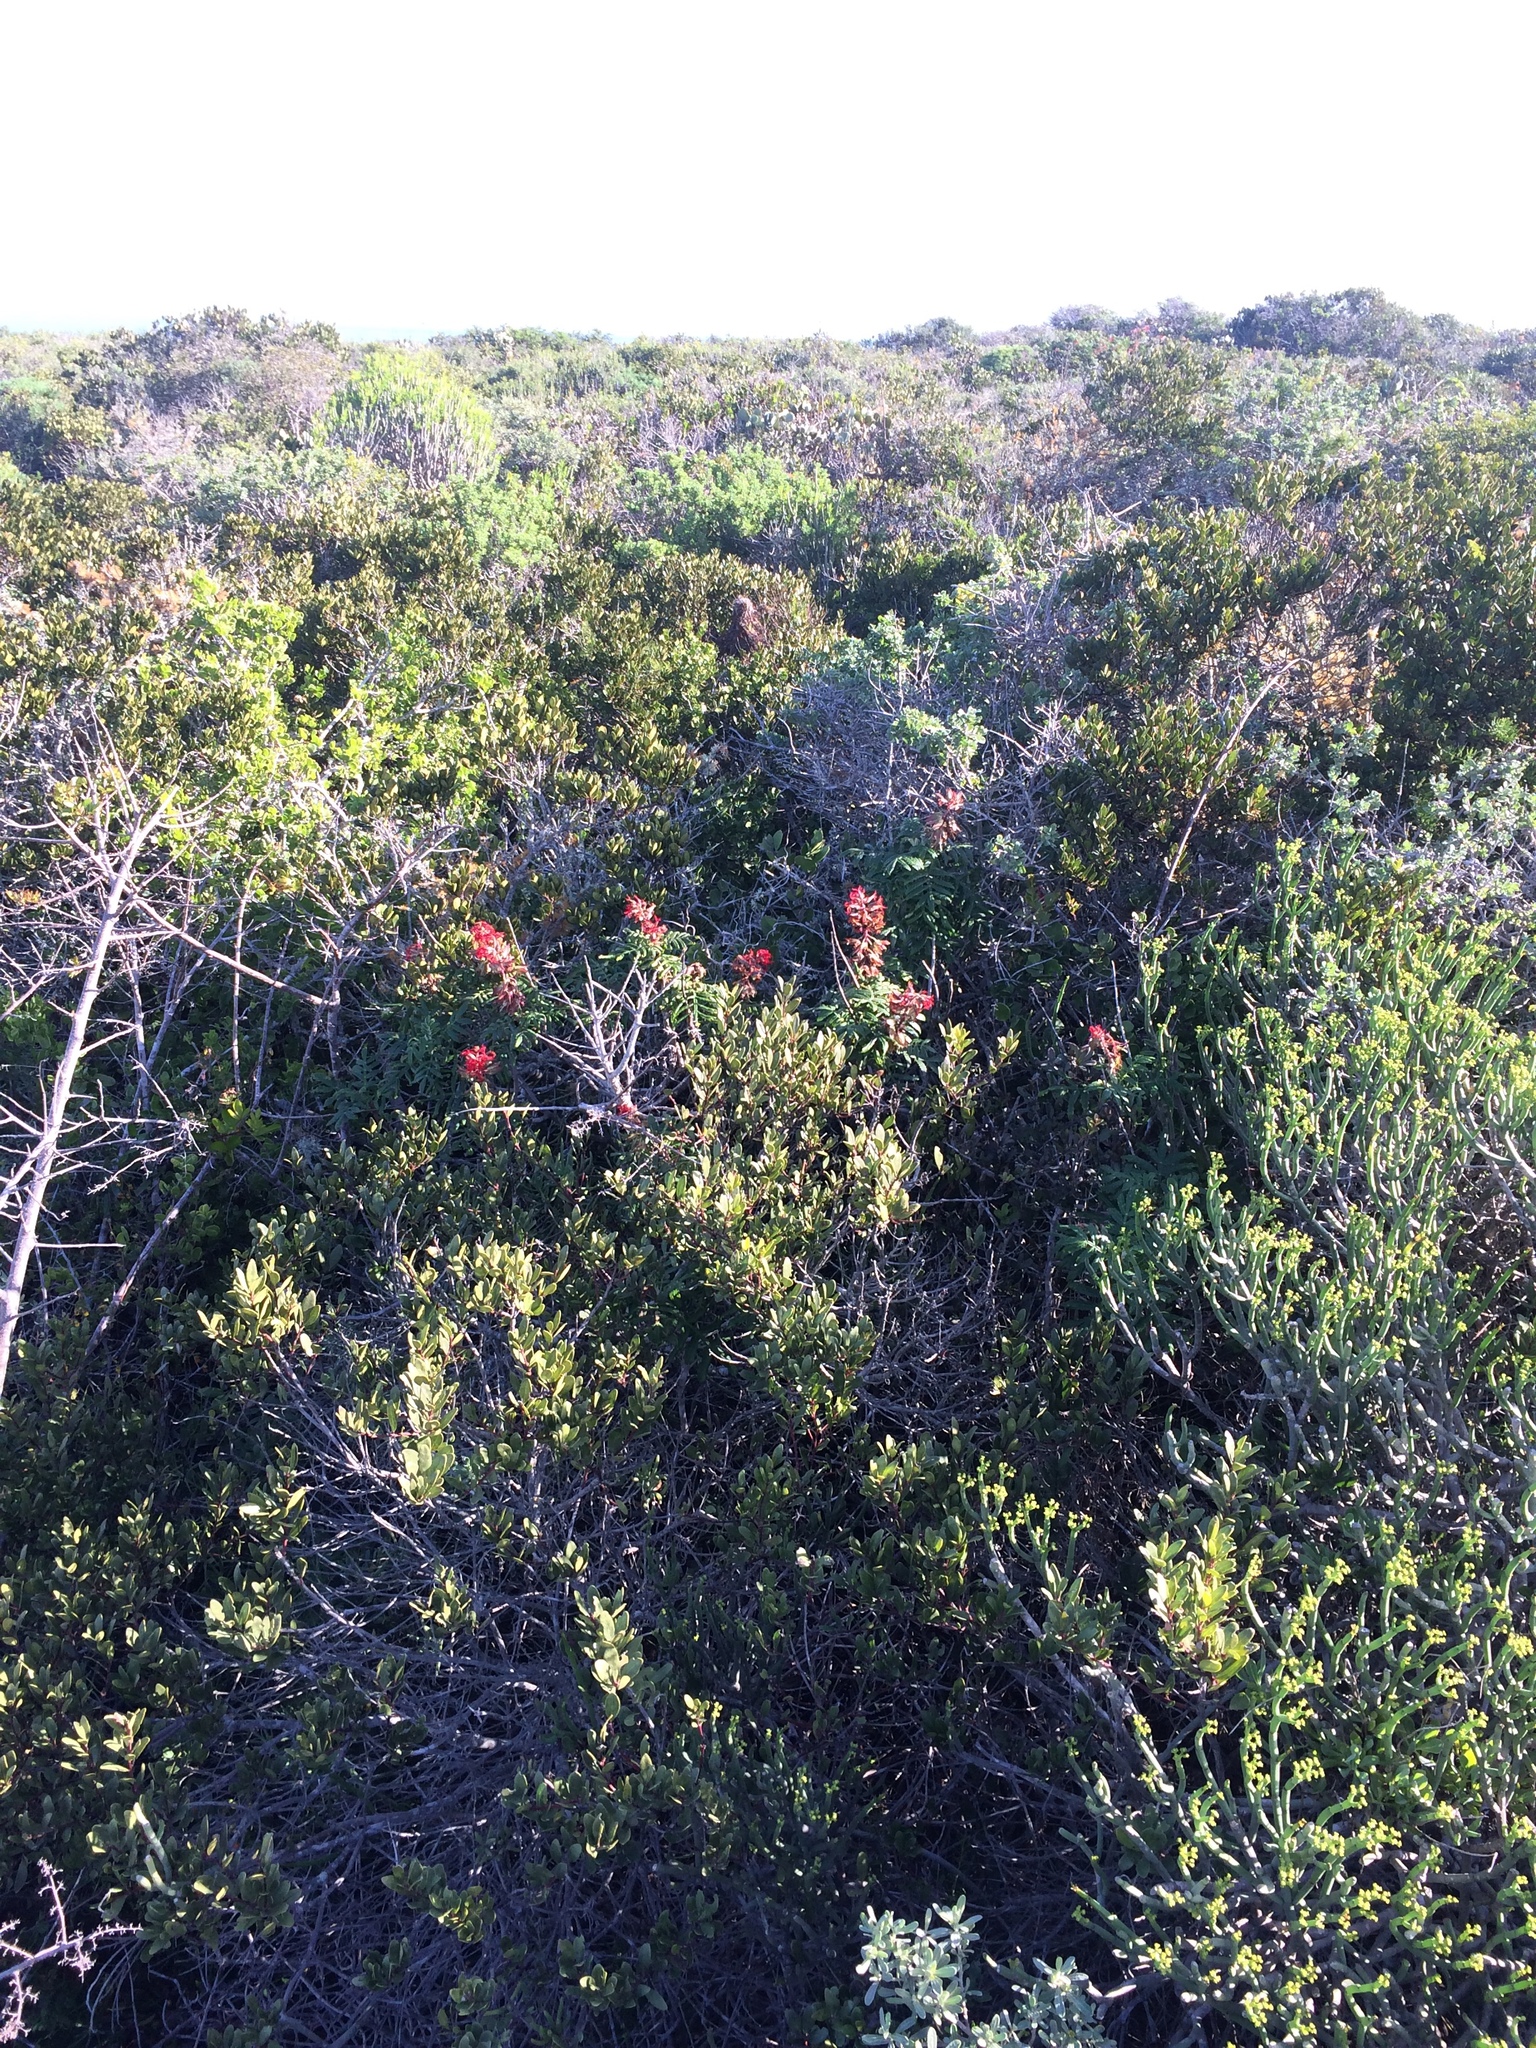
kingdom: Plantae
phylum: Tracheophyta
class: Magnoliopsida
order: Geraniales
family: Melianthaceae
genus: Melianthus
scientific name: Melianthus elongatus
